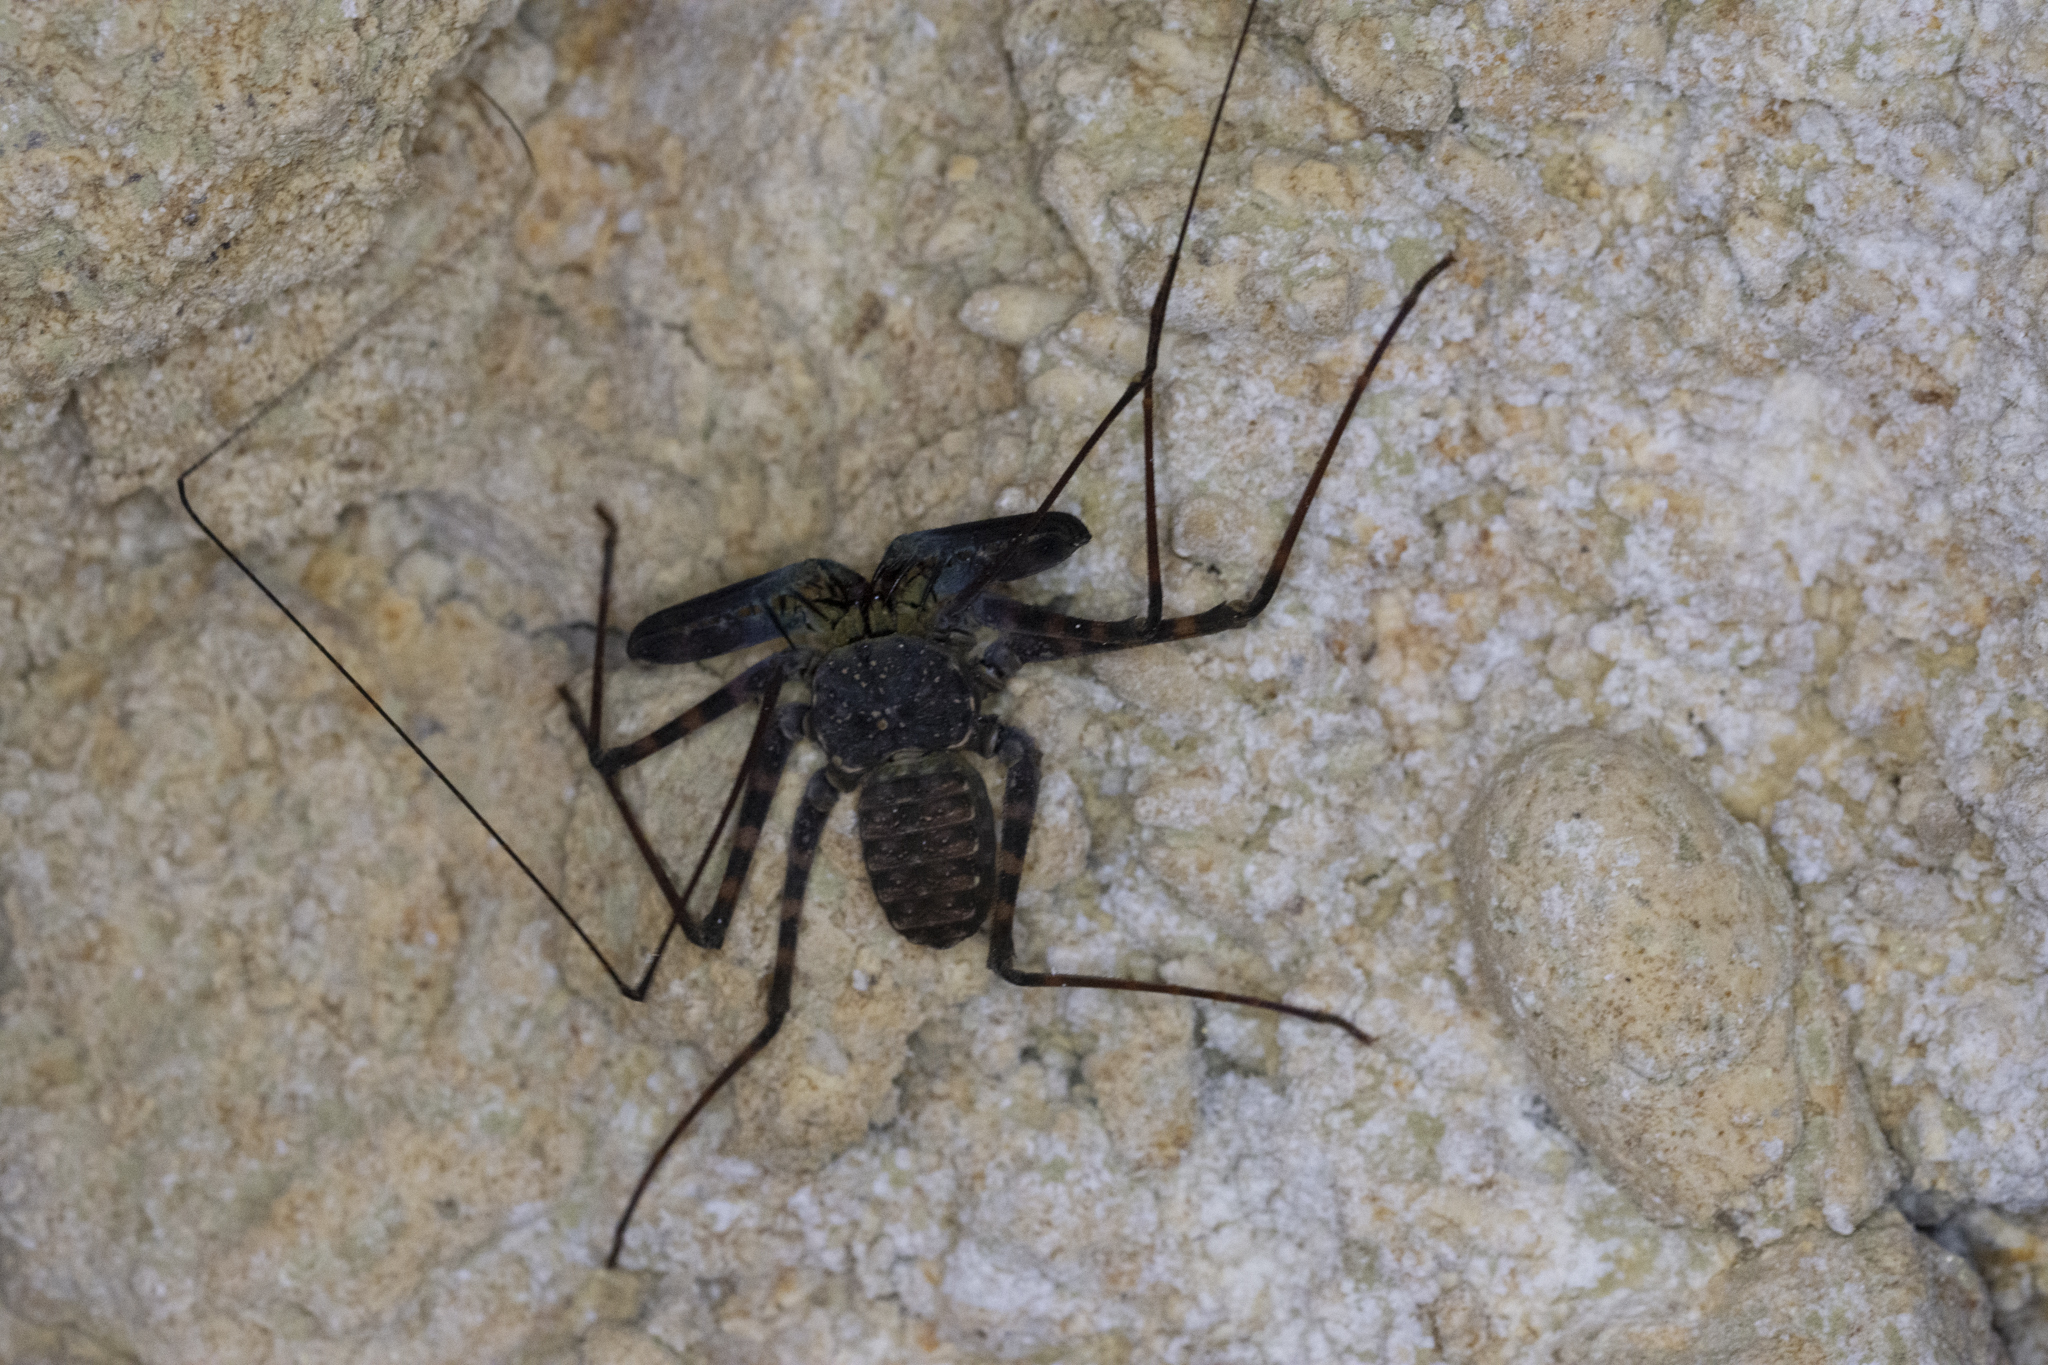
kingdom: Animalia
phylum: Arthropoda
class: Arachnida
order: Amblypygi
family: Charontidae
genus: Charon
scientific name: Charon grayi
